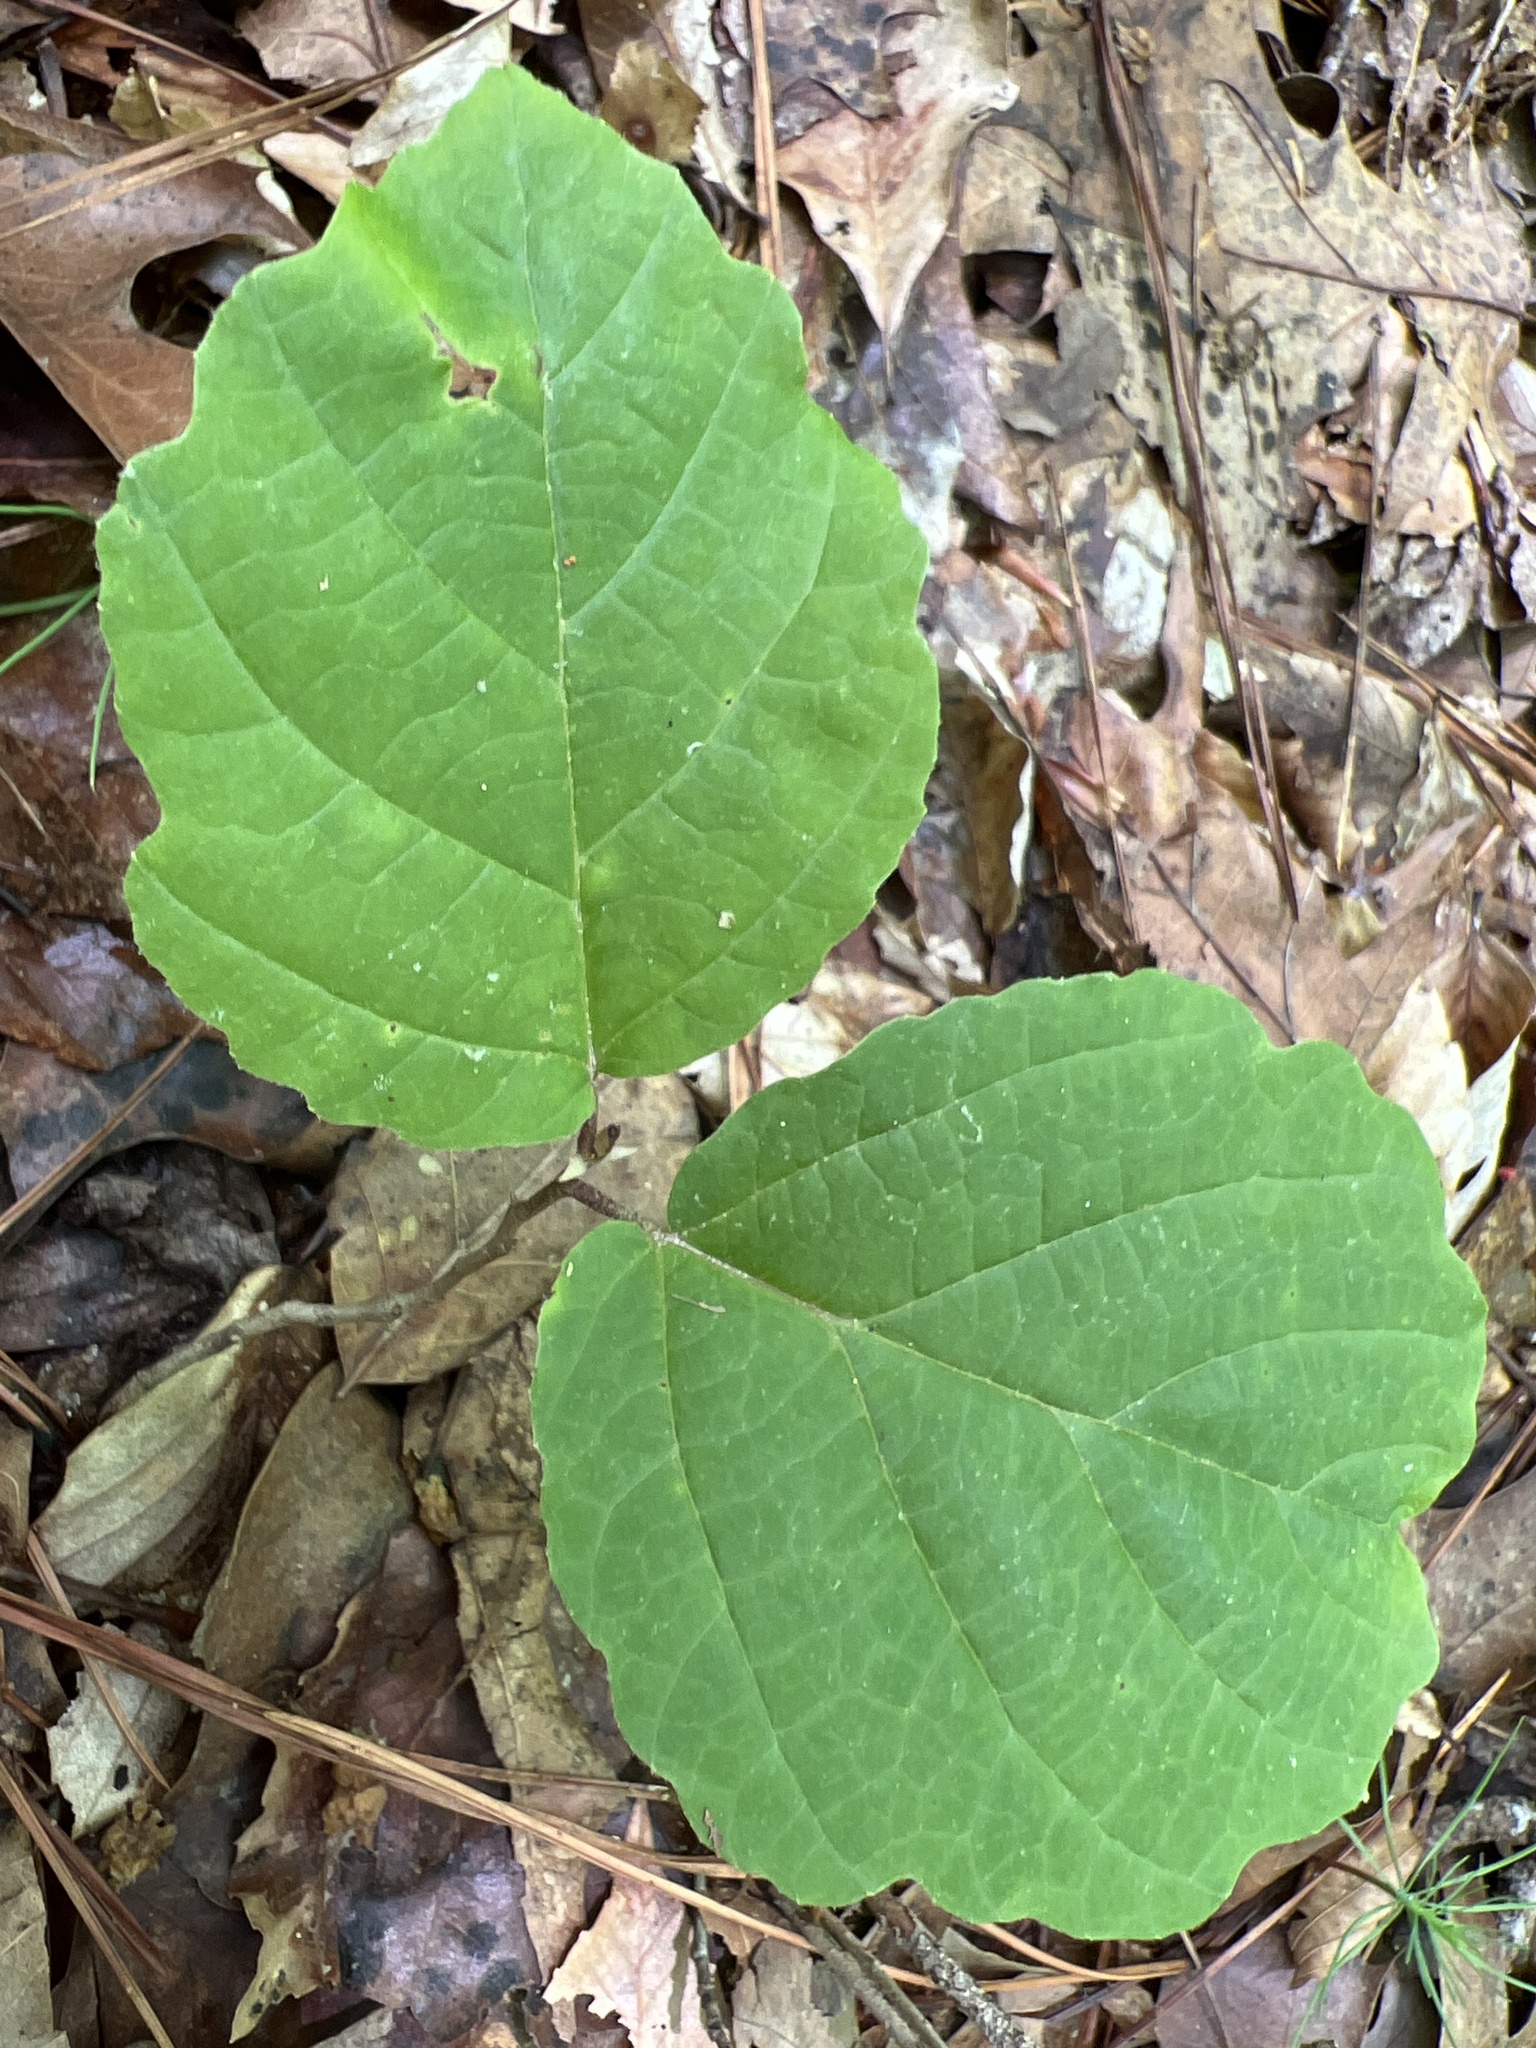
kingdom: Plantae
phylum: Tracheophyta
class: Magnoliopsida
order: Saxifragales
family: Hamamelidaceae
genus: Hamamelis
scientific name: Hamamelis virginiana
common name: Witch-hazel
